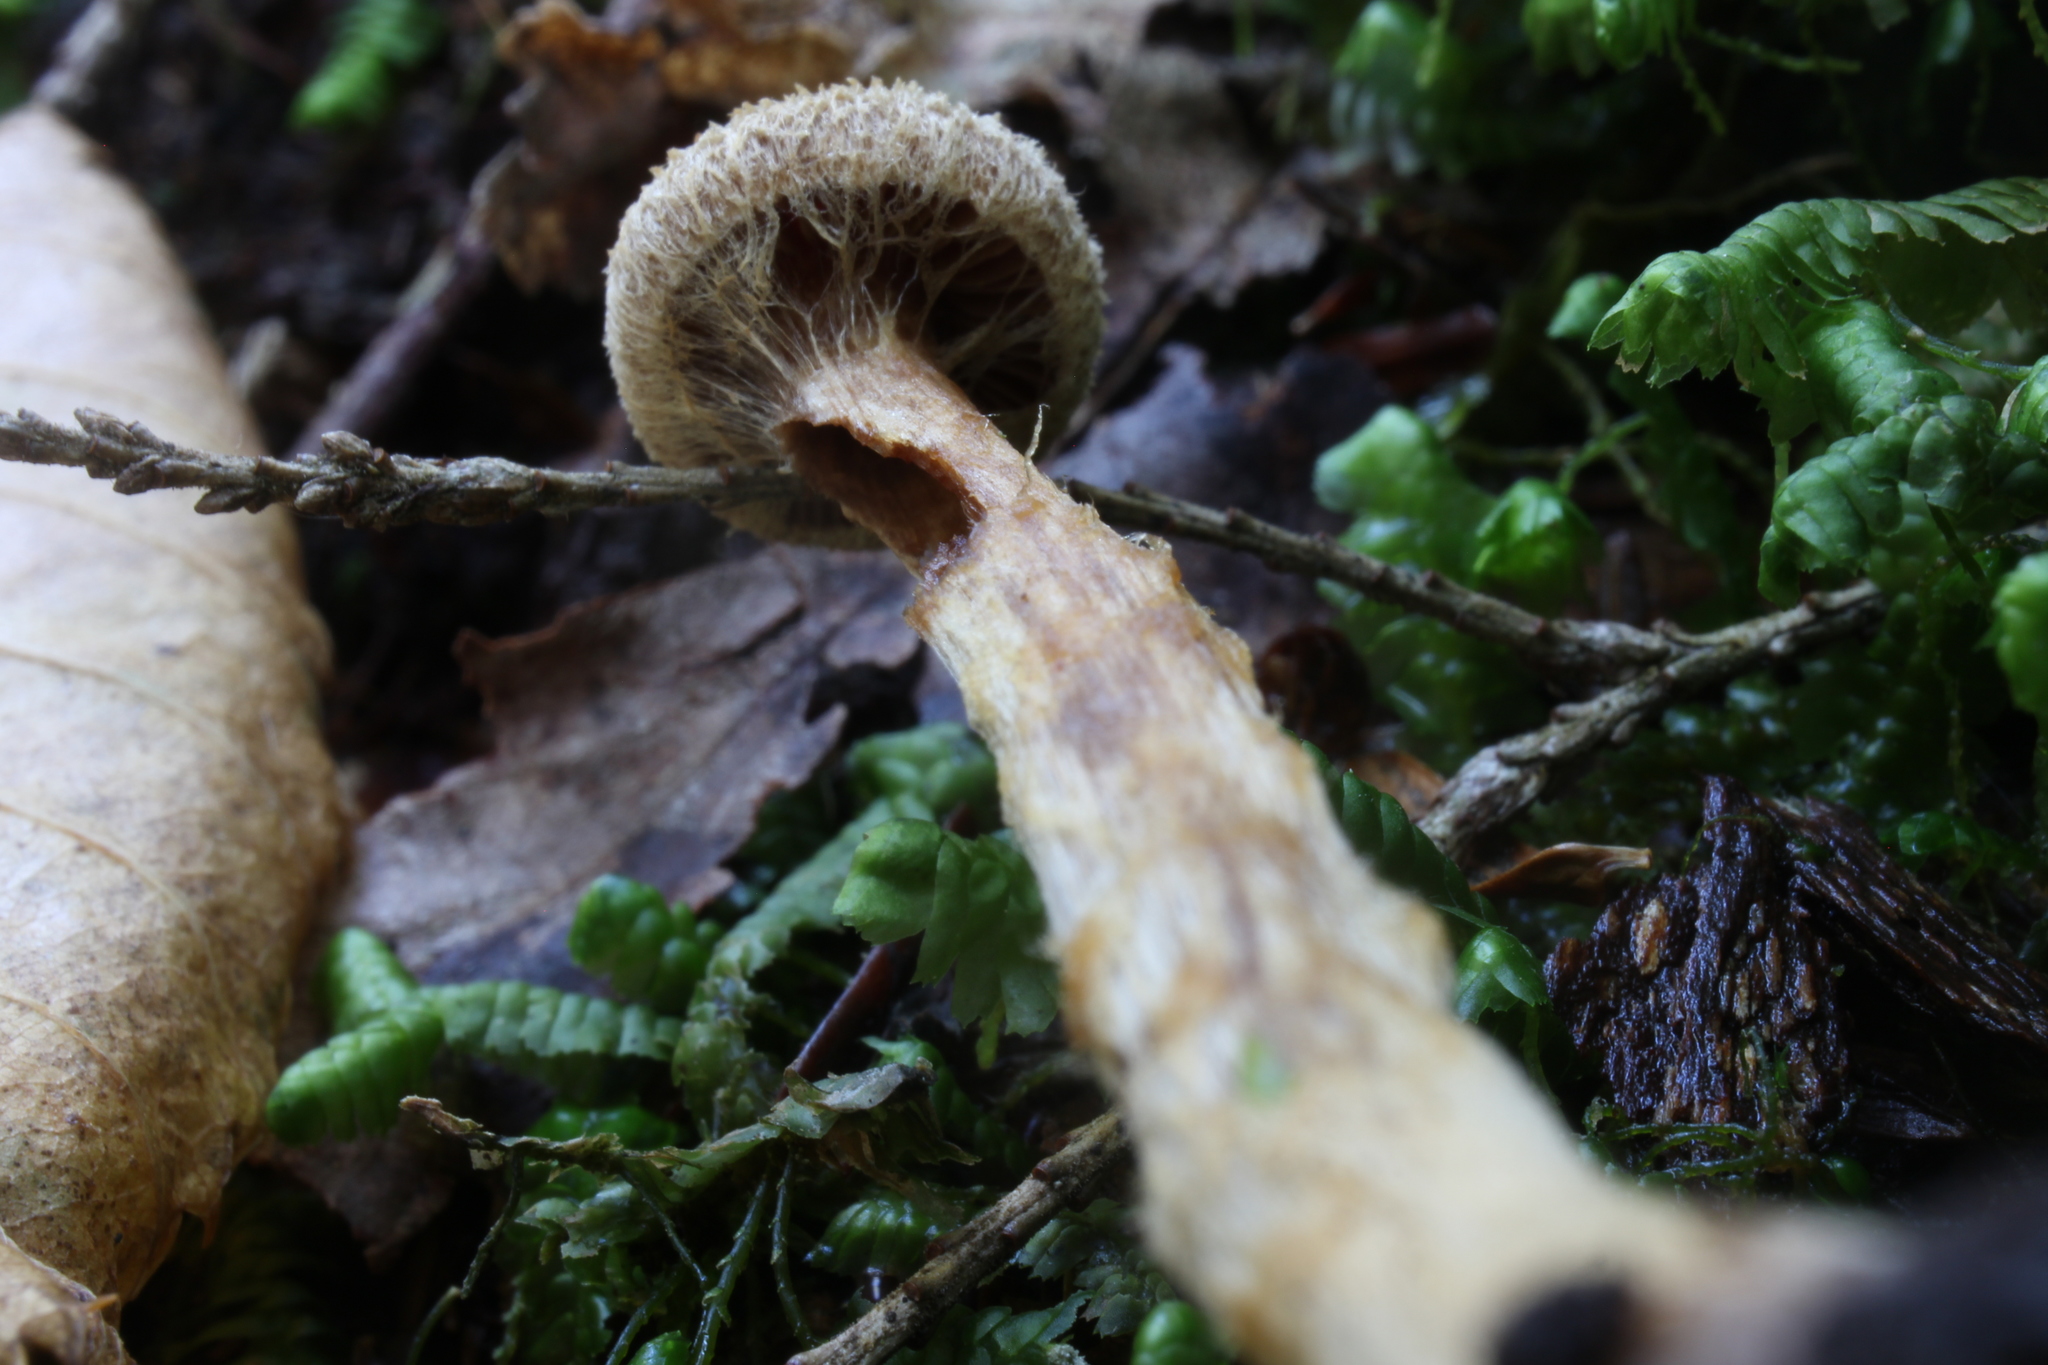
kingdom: Fungi
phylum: Basidiomycota
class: Agaricomycetes
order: Agaricales
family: Cortinariaceae
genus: Cortinarius
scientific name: Cortinarius angelesianus
